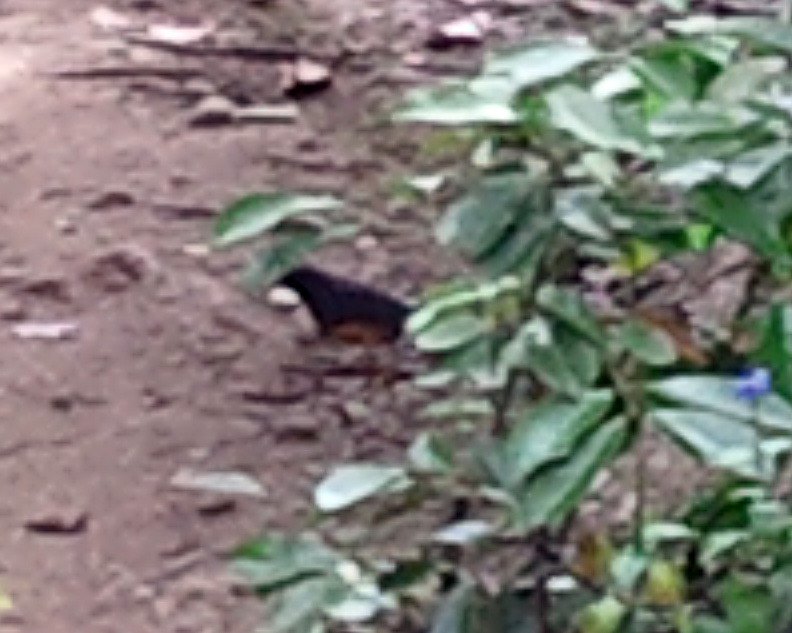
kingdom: Animalia
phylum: Chordata
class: Aves
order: Passeriformes
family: Muscicapidae
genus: Copsychus
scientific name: Copsychus malabaricus
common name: White-rumped shama
